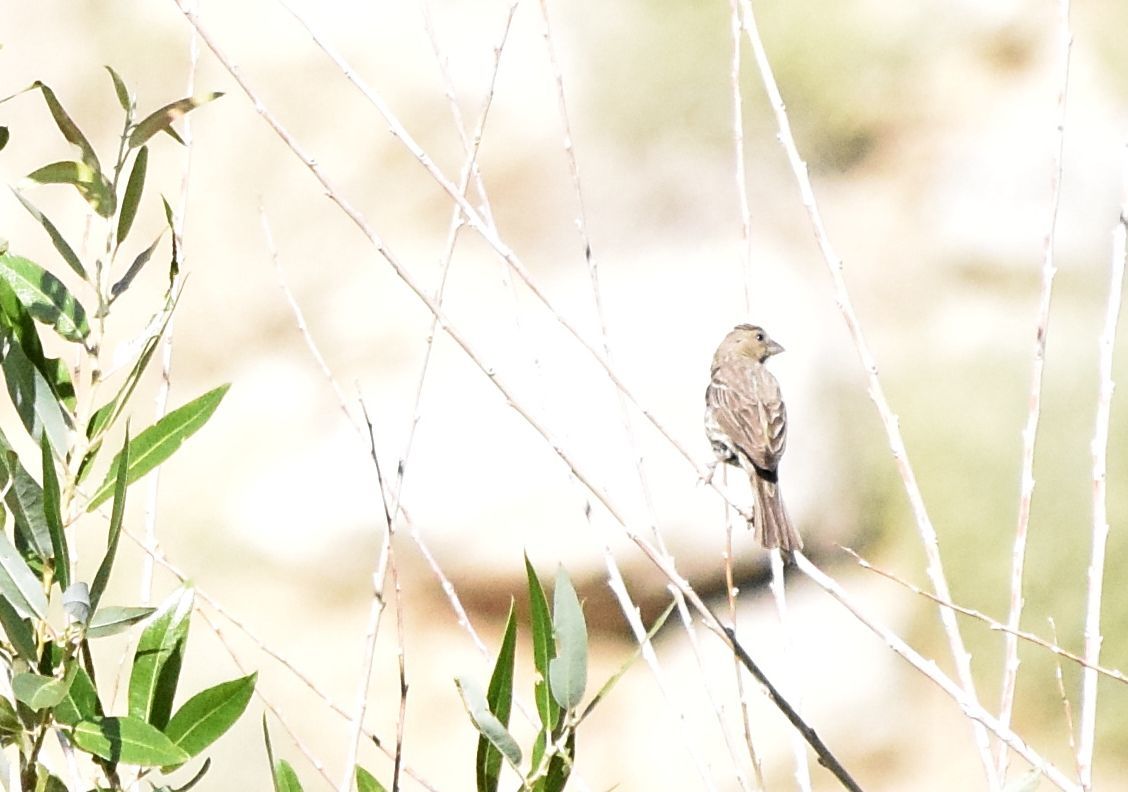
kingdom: Animalia
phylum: Chordata
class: Aves
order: Passeriformes
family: Fringillidae
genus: Haemorhous
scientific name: Haemorhous mexicanus
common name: House finch
